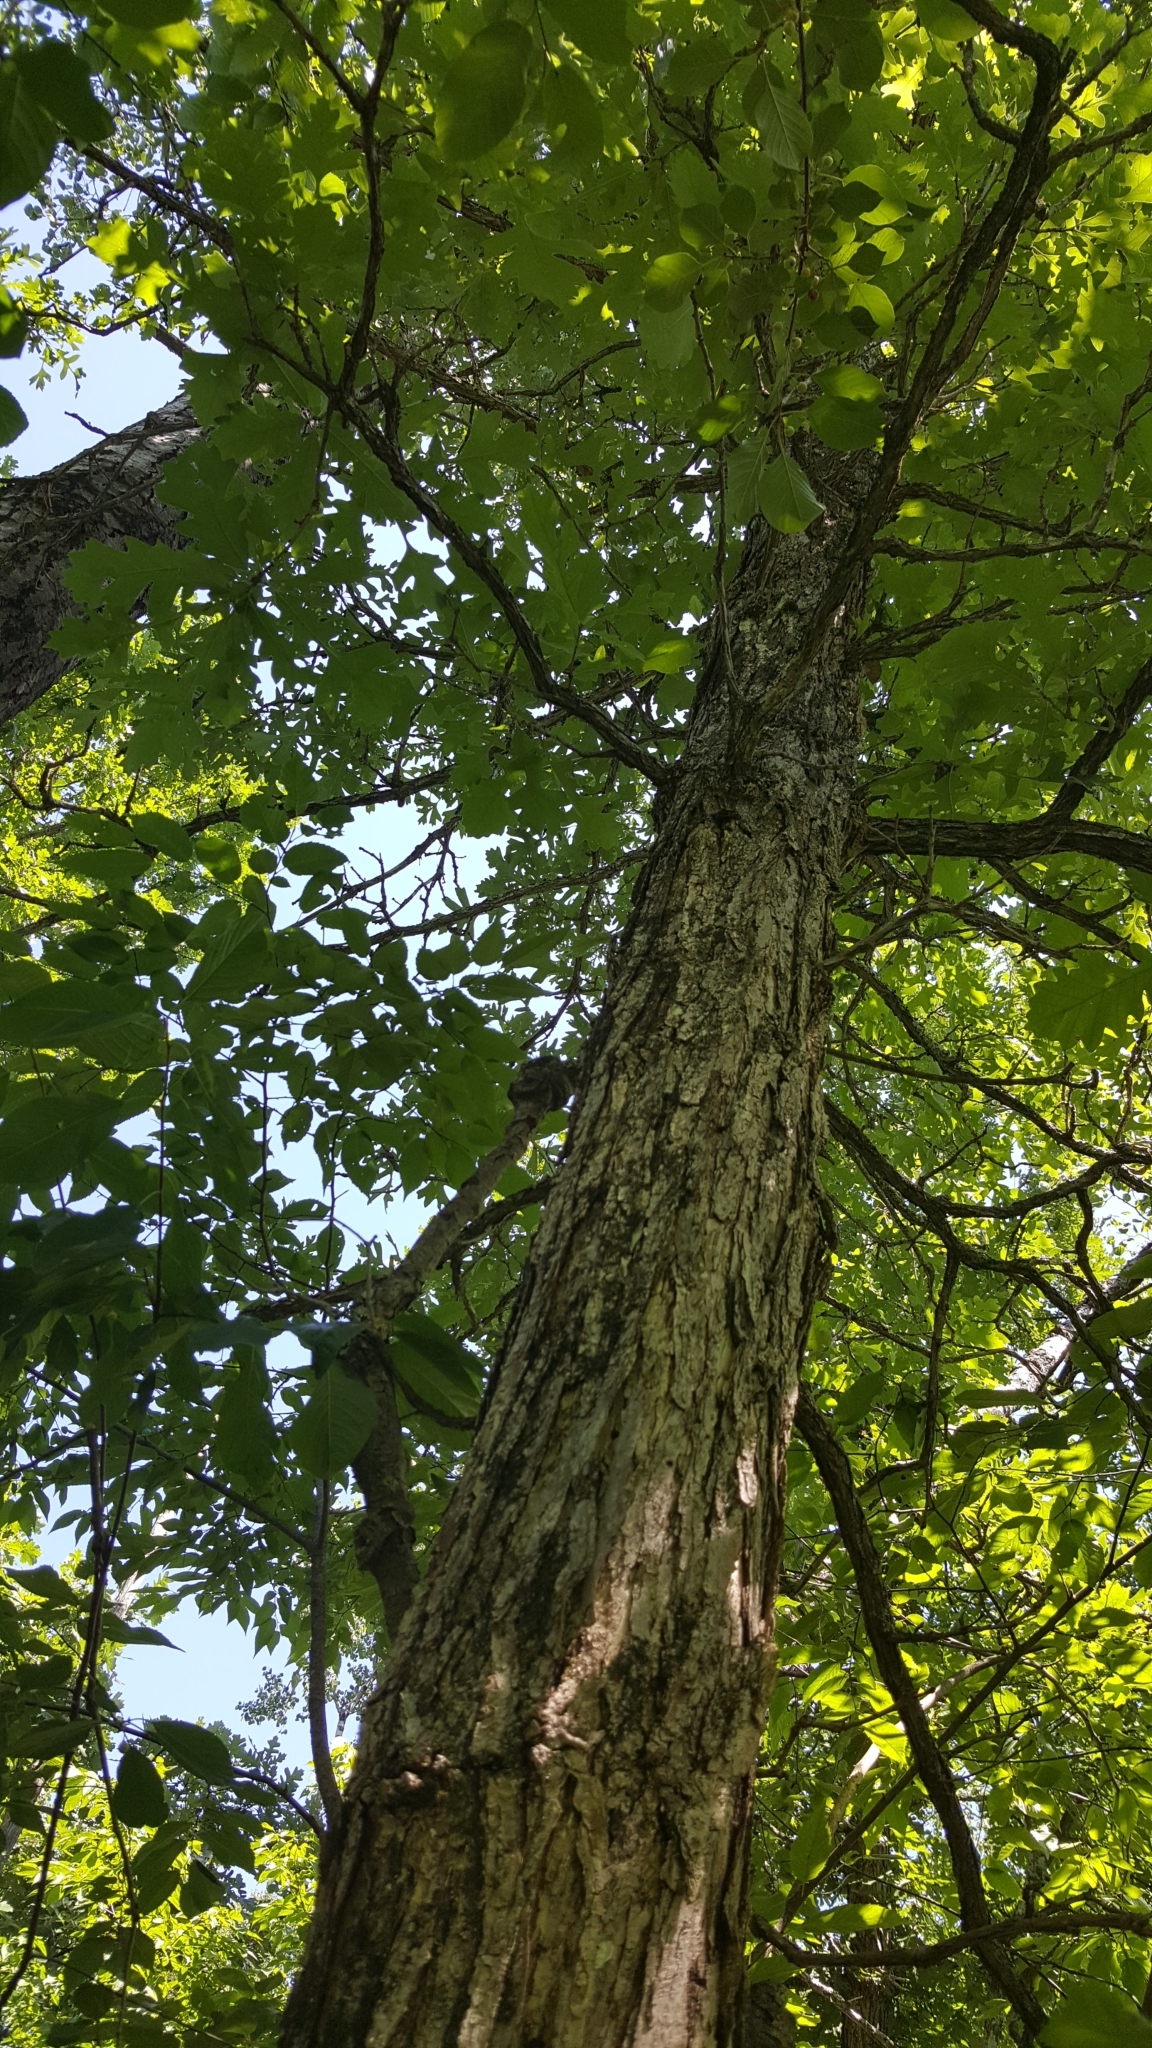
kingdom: Plantae
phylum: Tracheophyta
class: Magnoliopsida
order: Fagales
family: Fagaceae
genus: Quercus
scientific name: Quercus macrocarpa
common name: Bur oak
